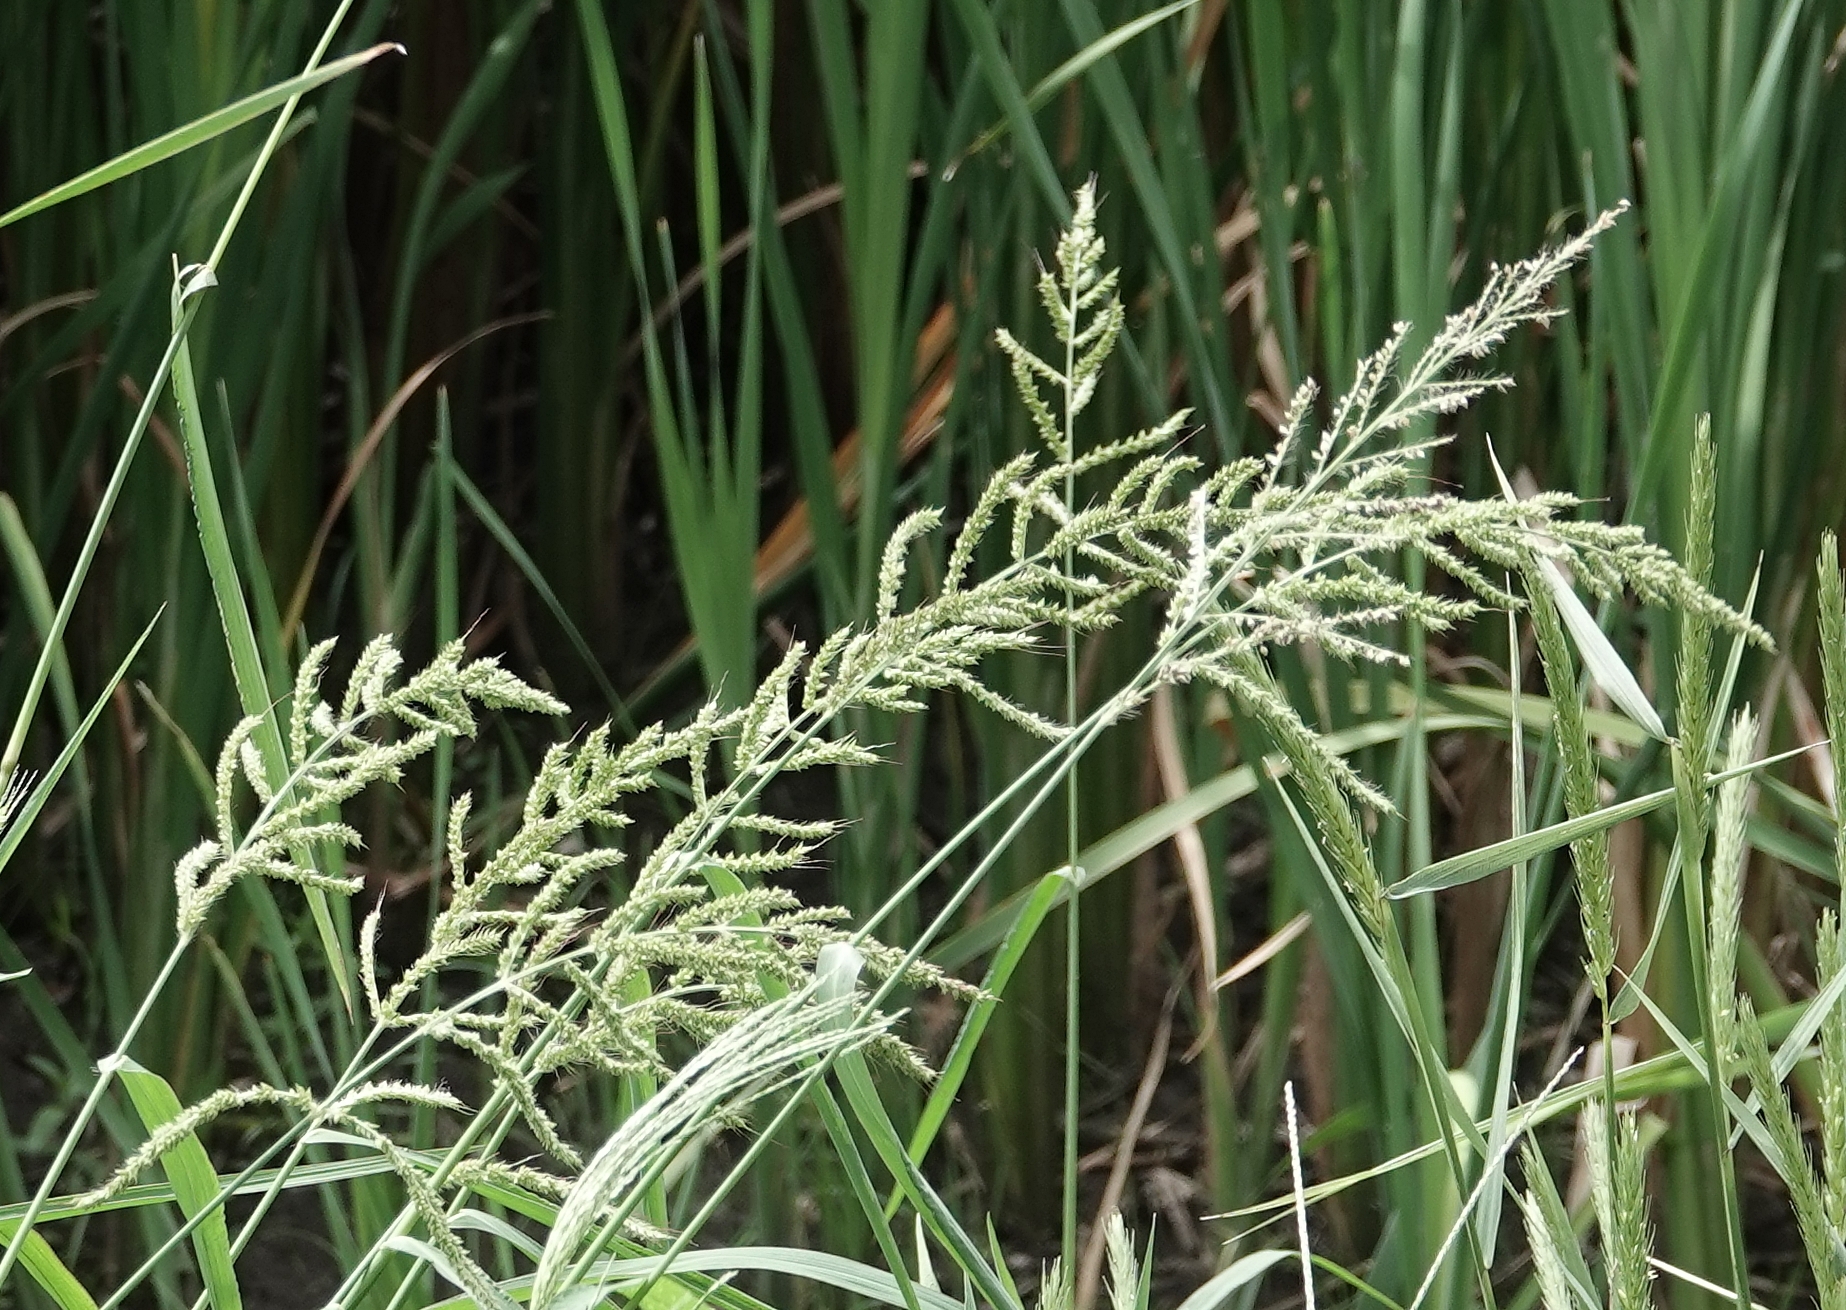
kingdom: Plantae
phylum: Tracheophyta
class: Liliopsida
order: Poales
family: Poaceae
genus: Echinochloa
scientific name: Echinochloa crus-galli
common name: Cockspur
